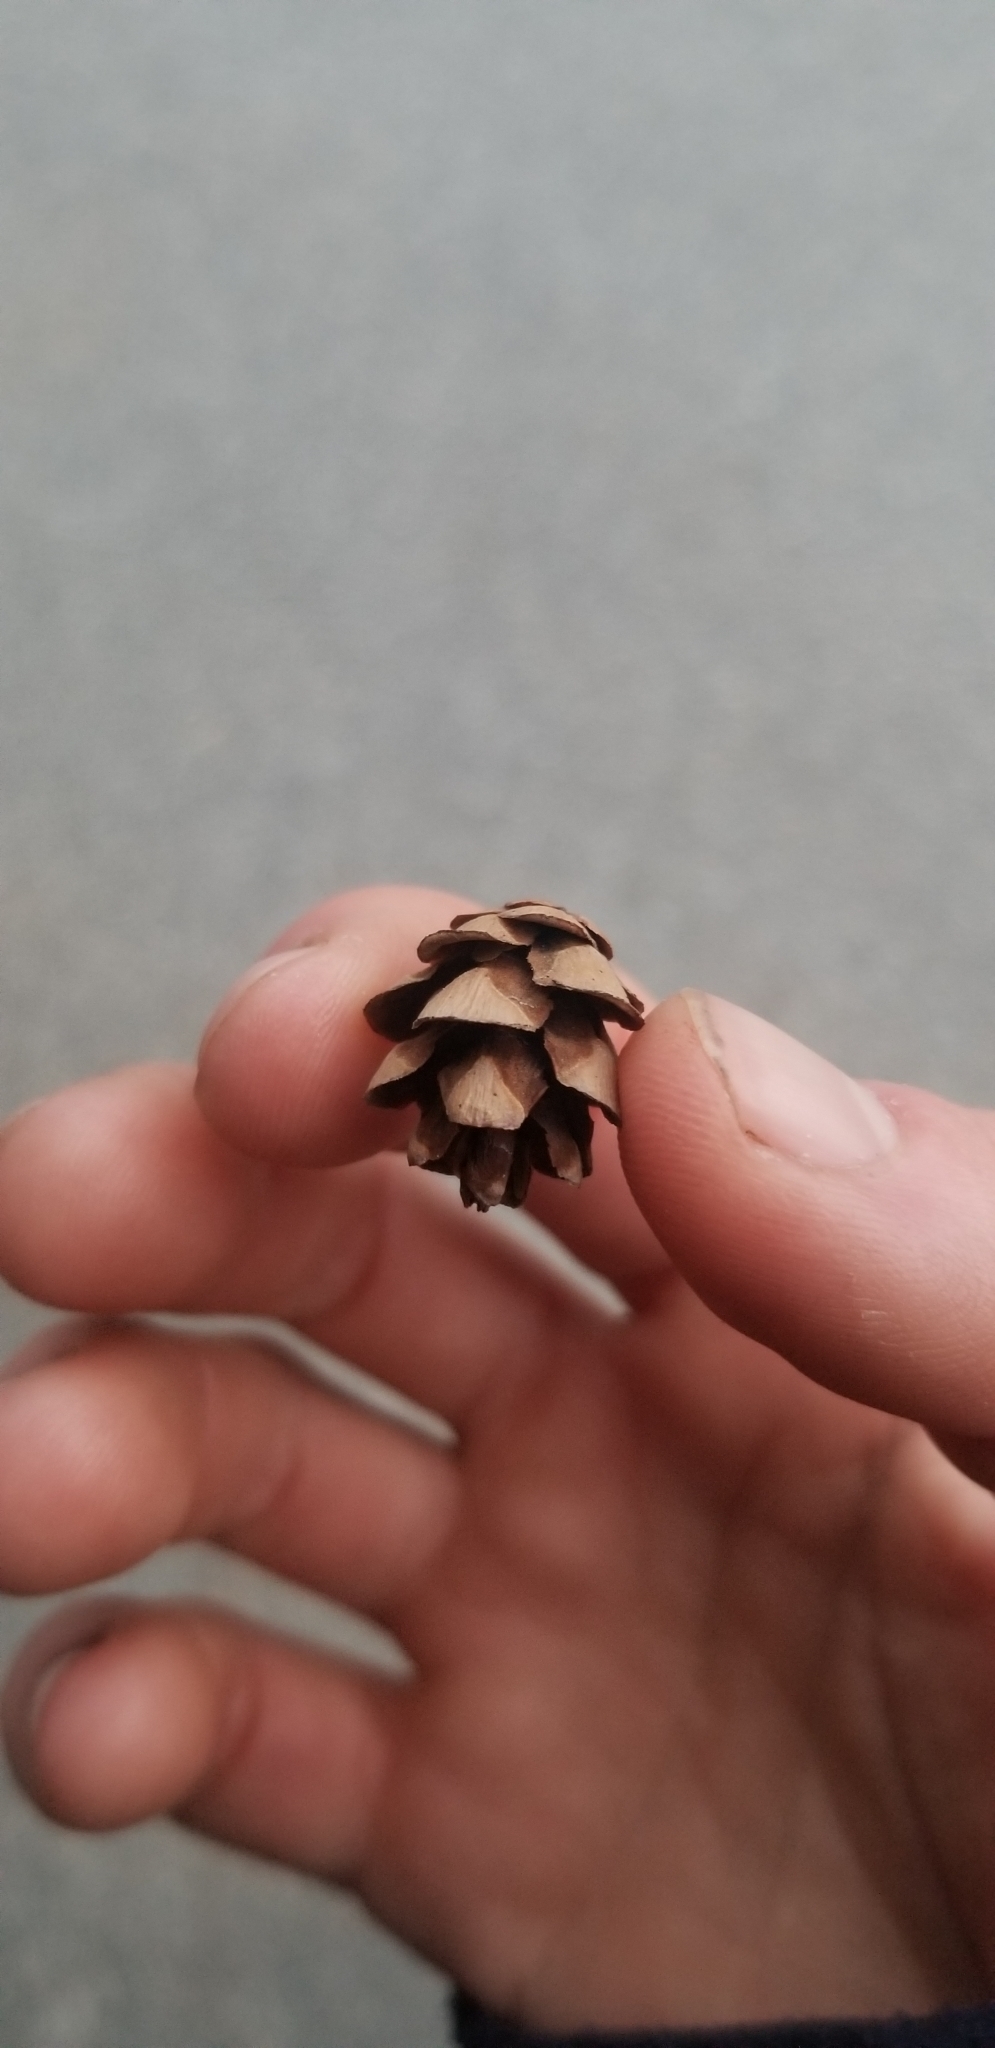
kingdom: Plantae
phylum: Tracheophyta
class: Pinopsida
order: Pinales
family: Pinaceae
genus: Tsuga
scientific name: Tsuga canadensis
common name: Eastern hemlock
